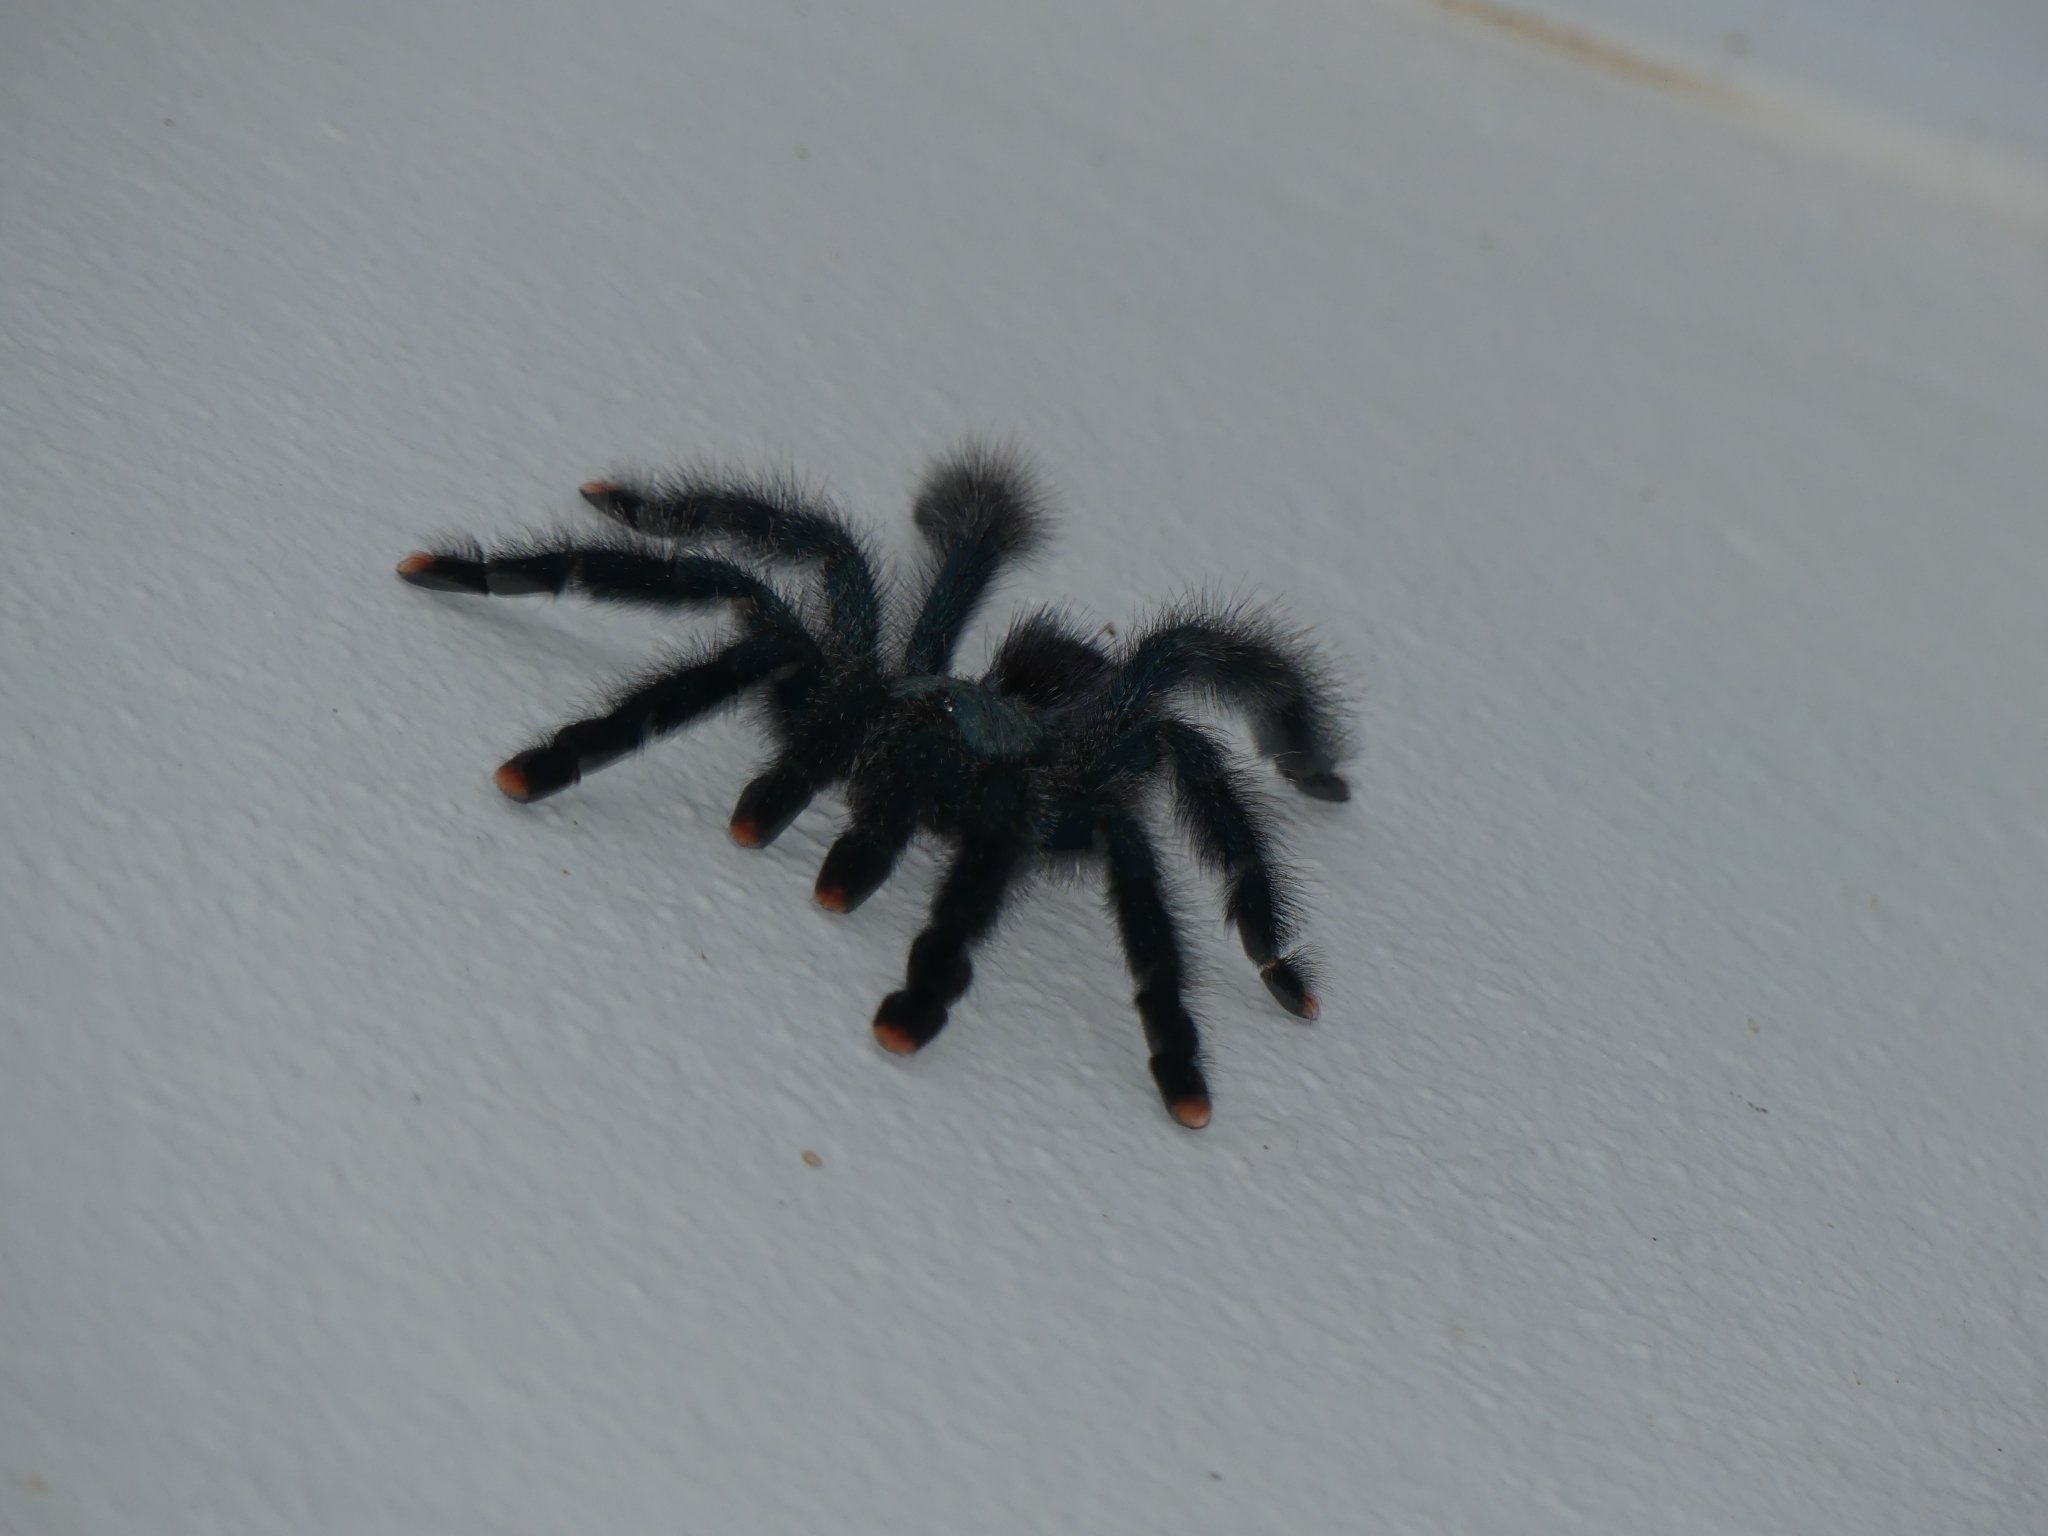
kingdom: Animalia
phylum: Arthropoda
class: Arachnida
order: Araneae
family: Theraphosidae
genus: Avicularia
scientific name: Avicularia avicularia
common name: Tarantula spiders
